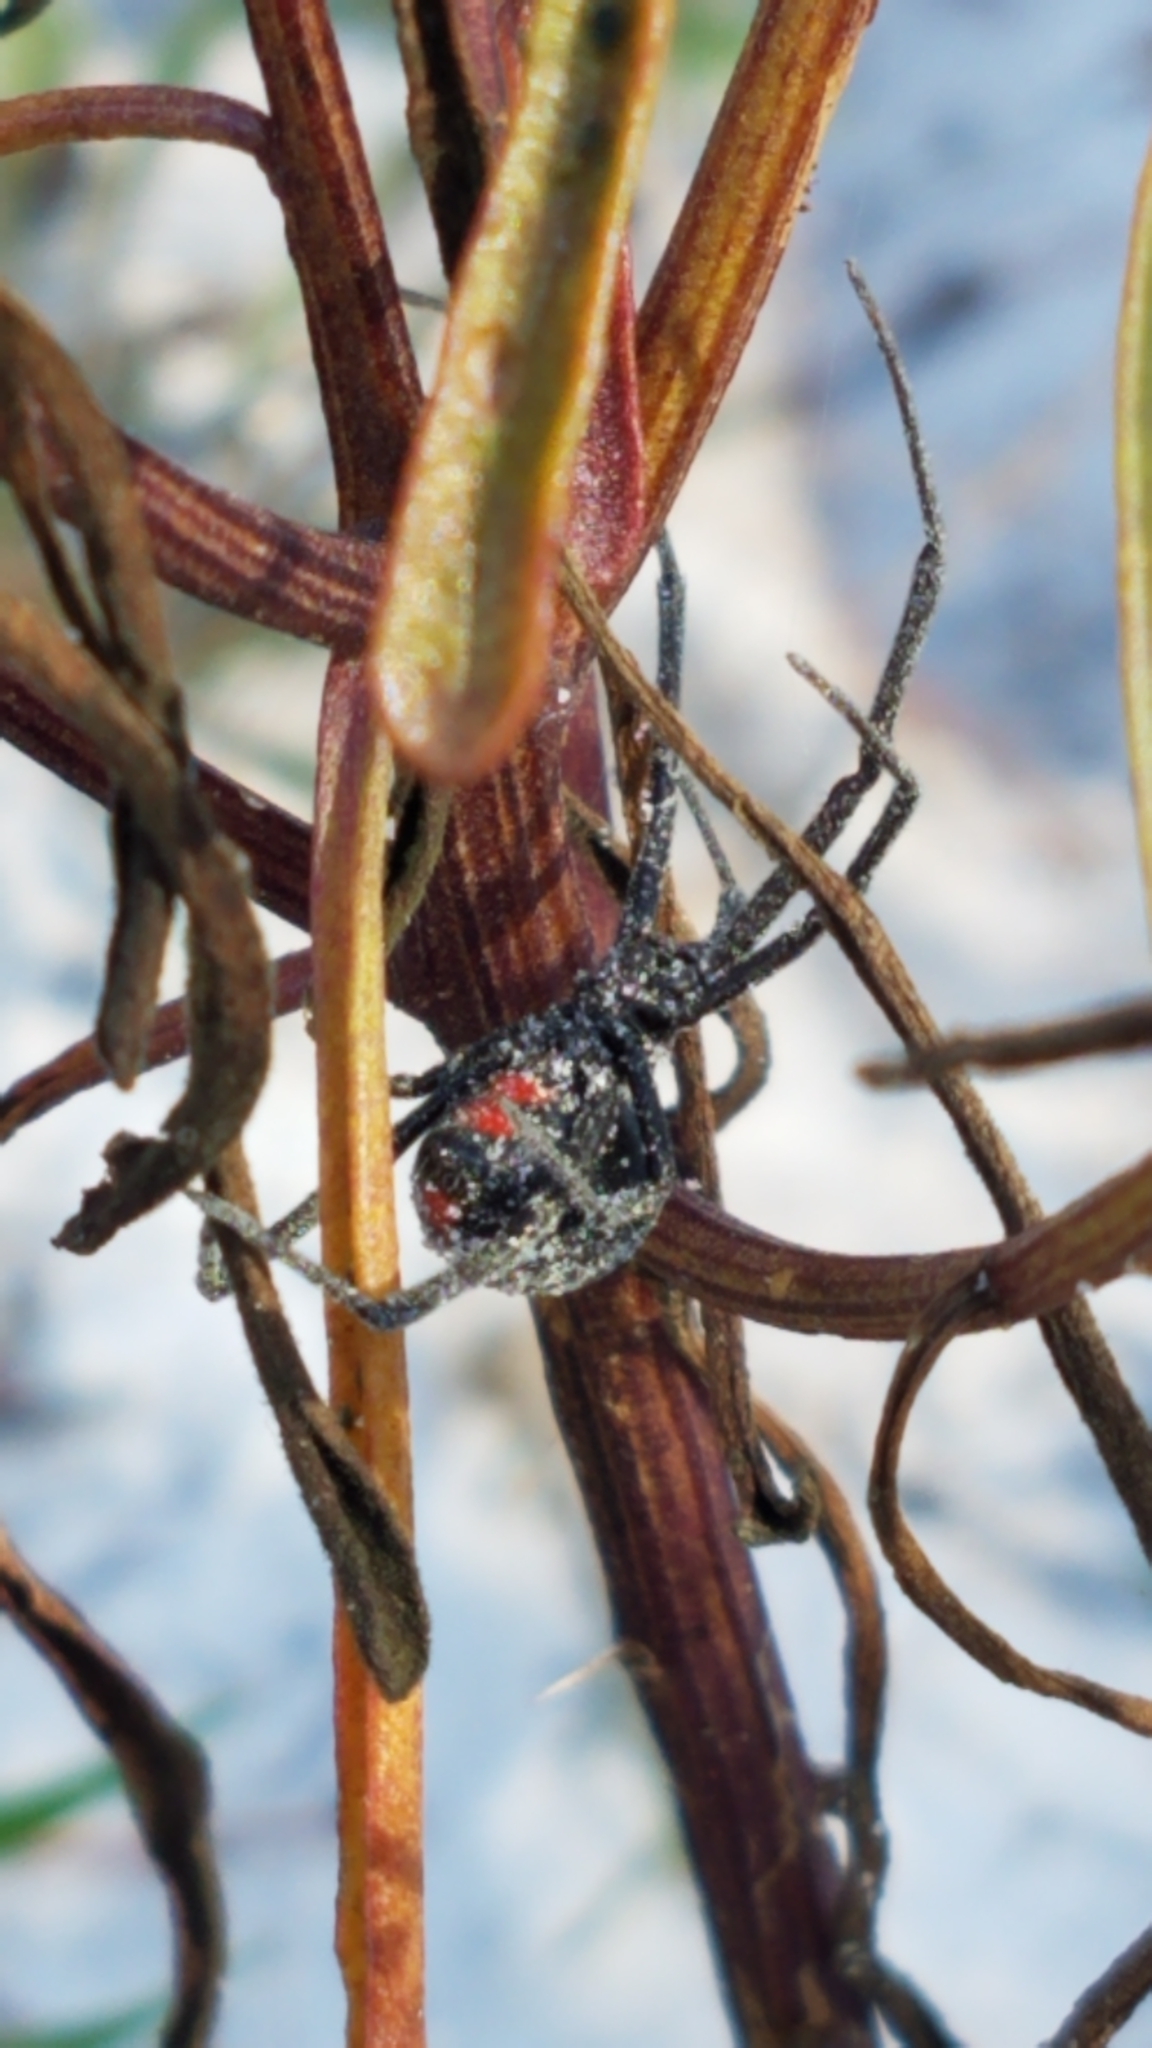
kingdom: Animalia
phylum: Arthropoda
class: Arachnida
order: Araneae
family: Theridiidae
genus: Latrodectus
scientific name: Latrodectus mactans
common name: Cobweb spiders
